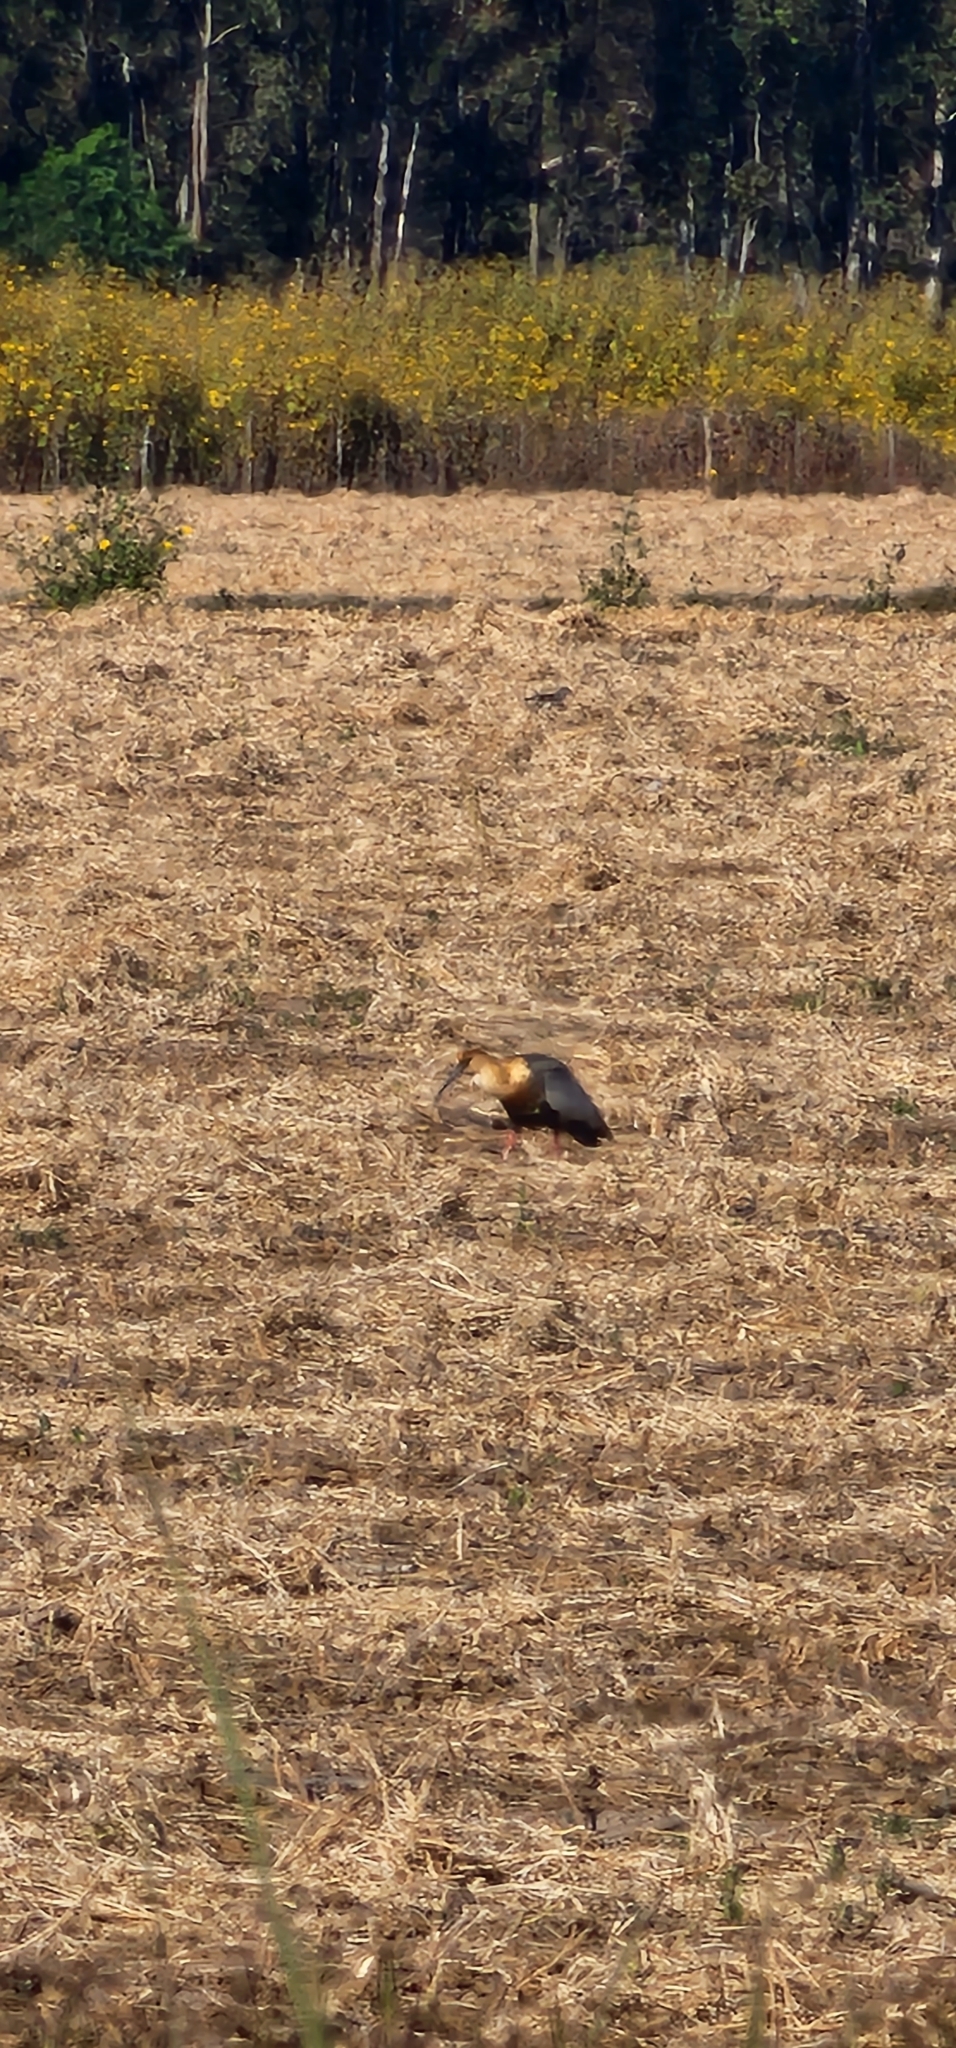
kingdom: Animalia
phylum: Chordata
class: Aves
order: Pelecaniformes
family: Threskiornithidae
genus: Theristicus
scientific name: Theristicus caudatus
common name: Buff-necked ibis
